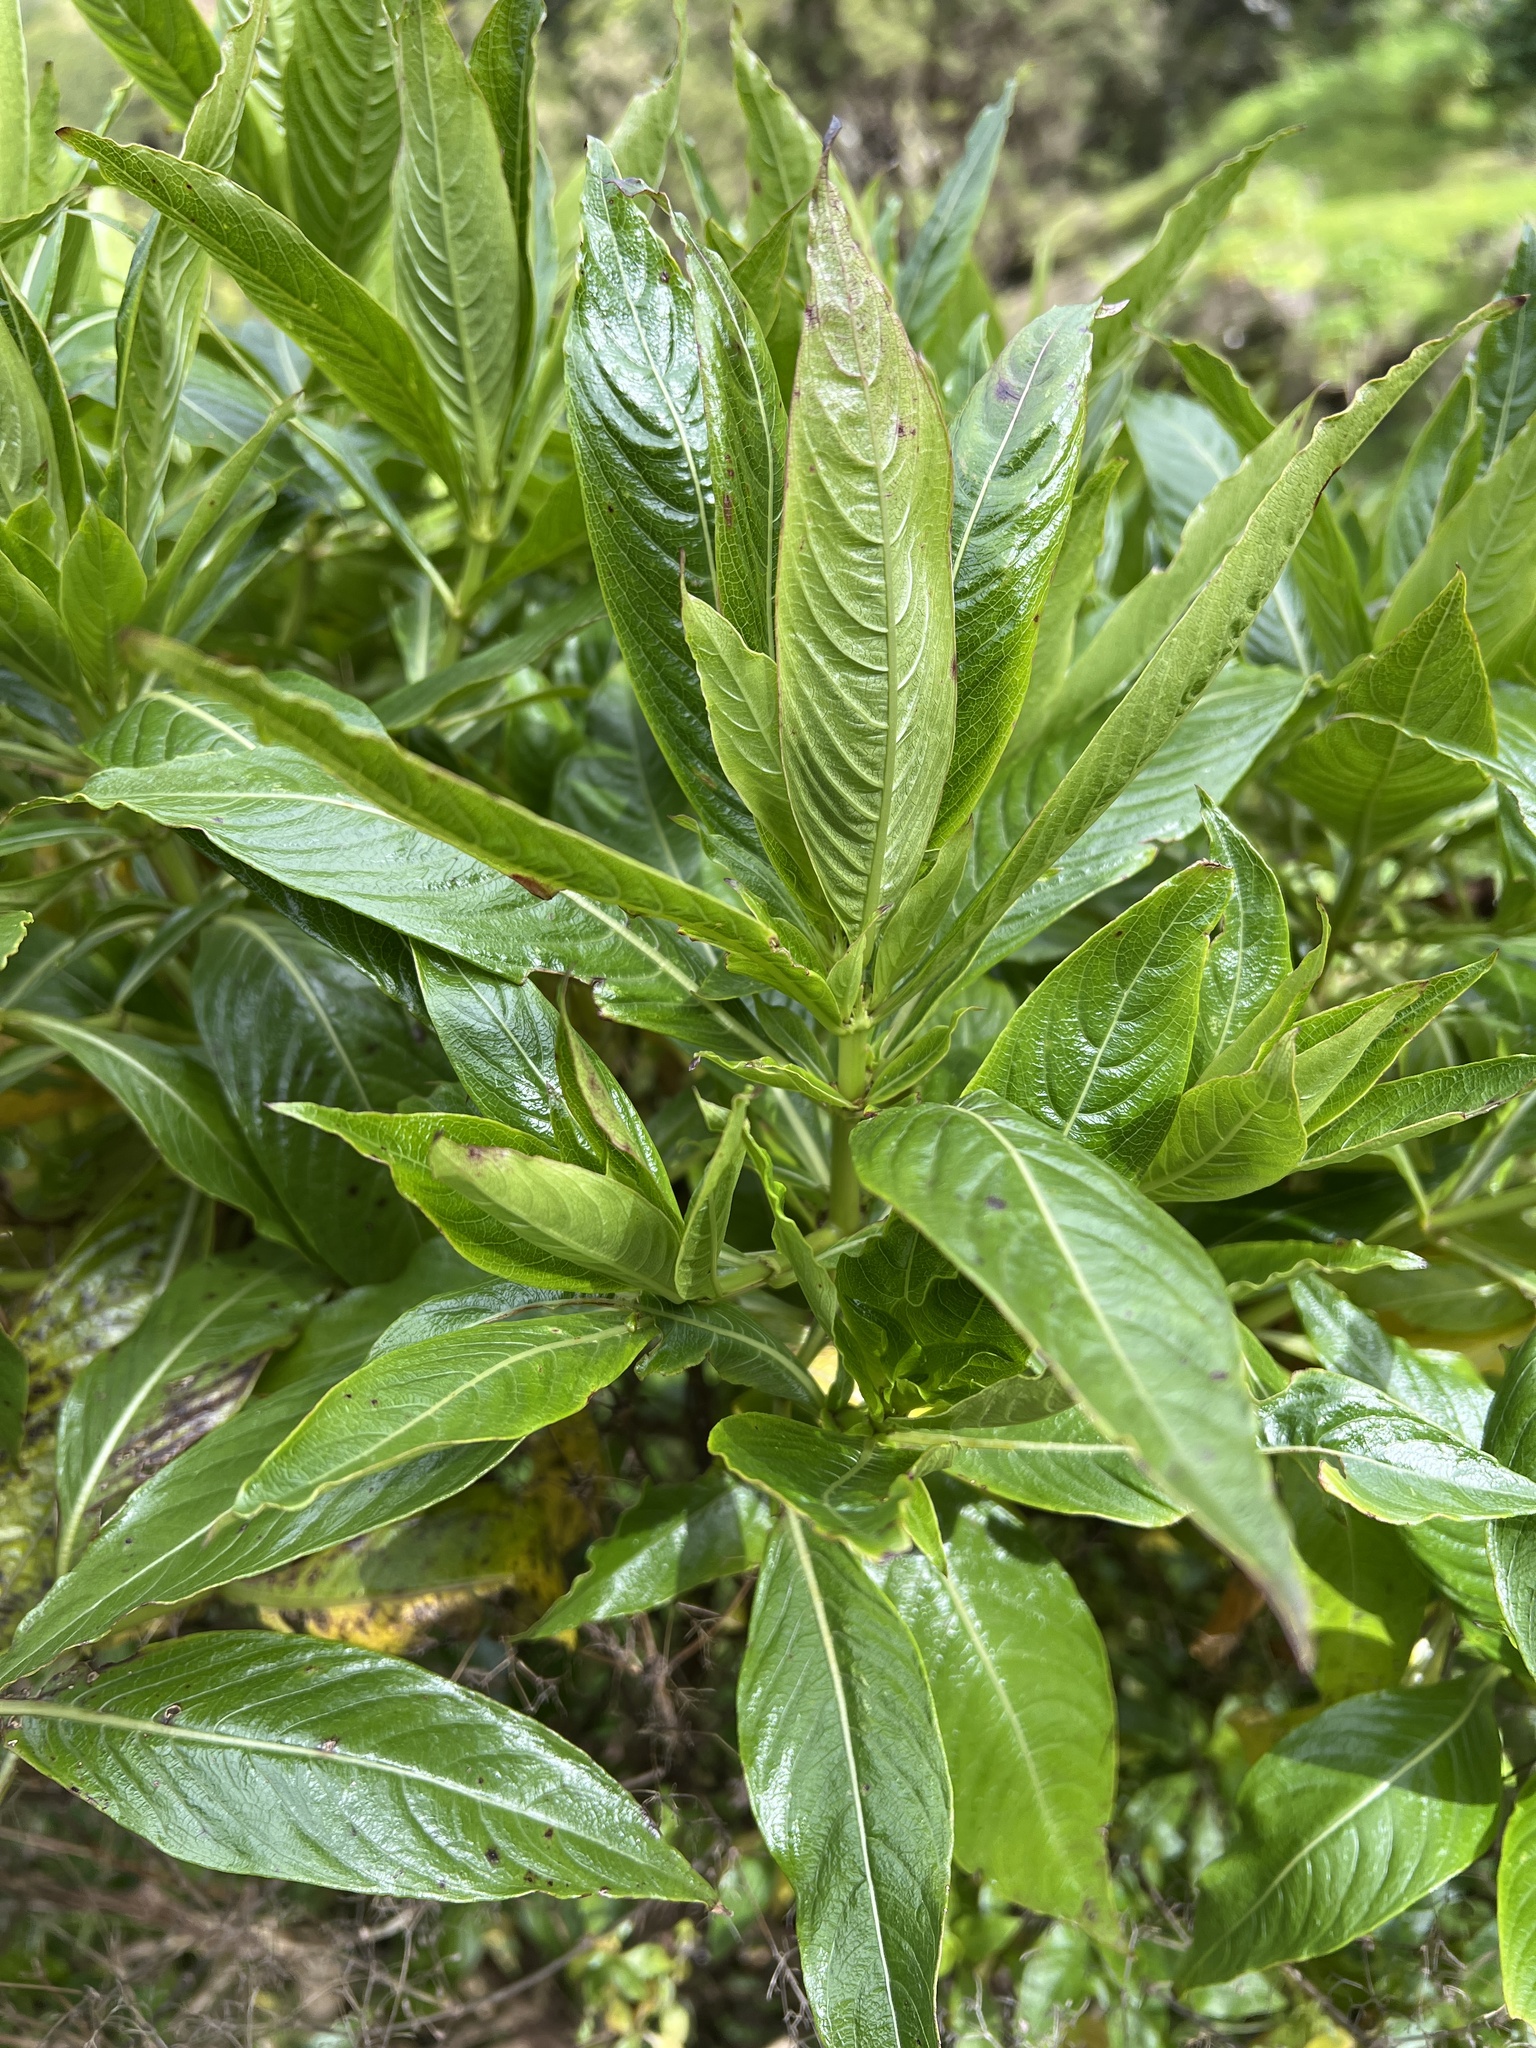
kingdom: Plantae
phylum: Tracheophyta
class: Magnoliopsida
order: Gentianales
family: Rubiaceae
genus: Phyllis
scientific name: Phyllis nobla
